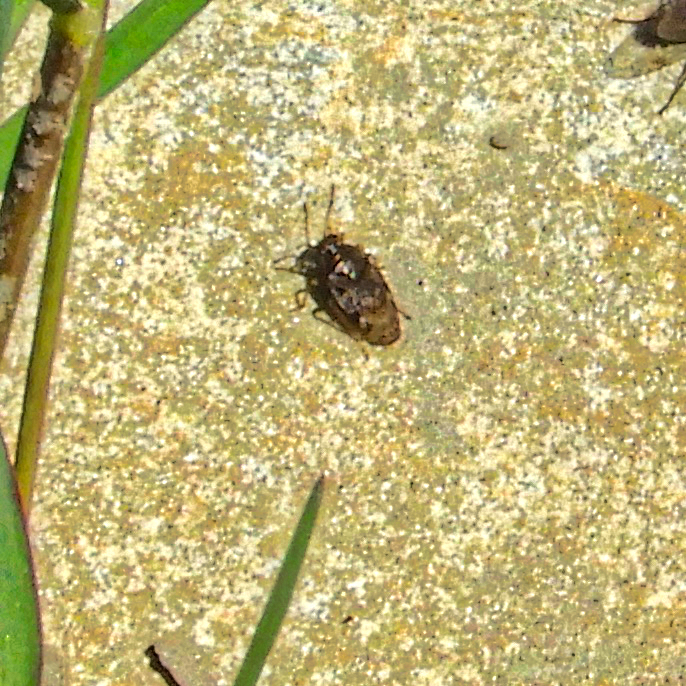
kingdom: Animalia
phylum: Arthropoda
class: Insecta
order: Hemiptera
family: Saldidae
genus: Saldula
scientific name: Saldula
